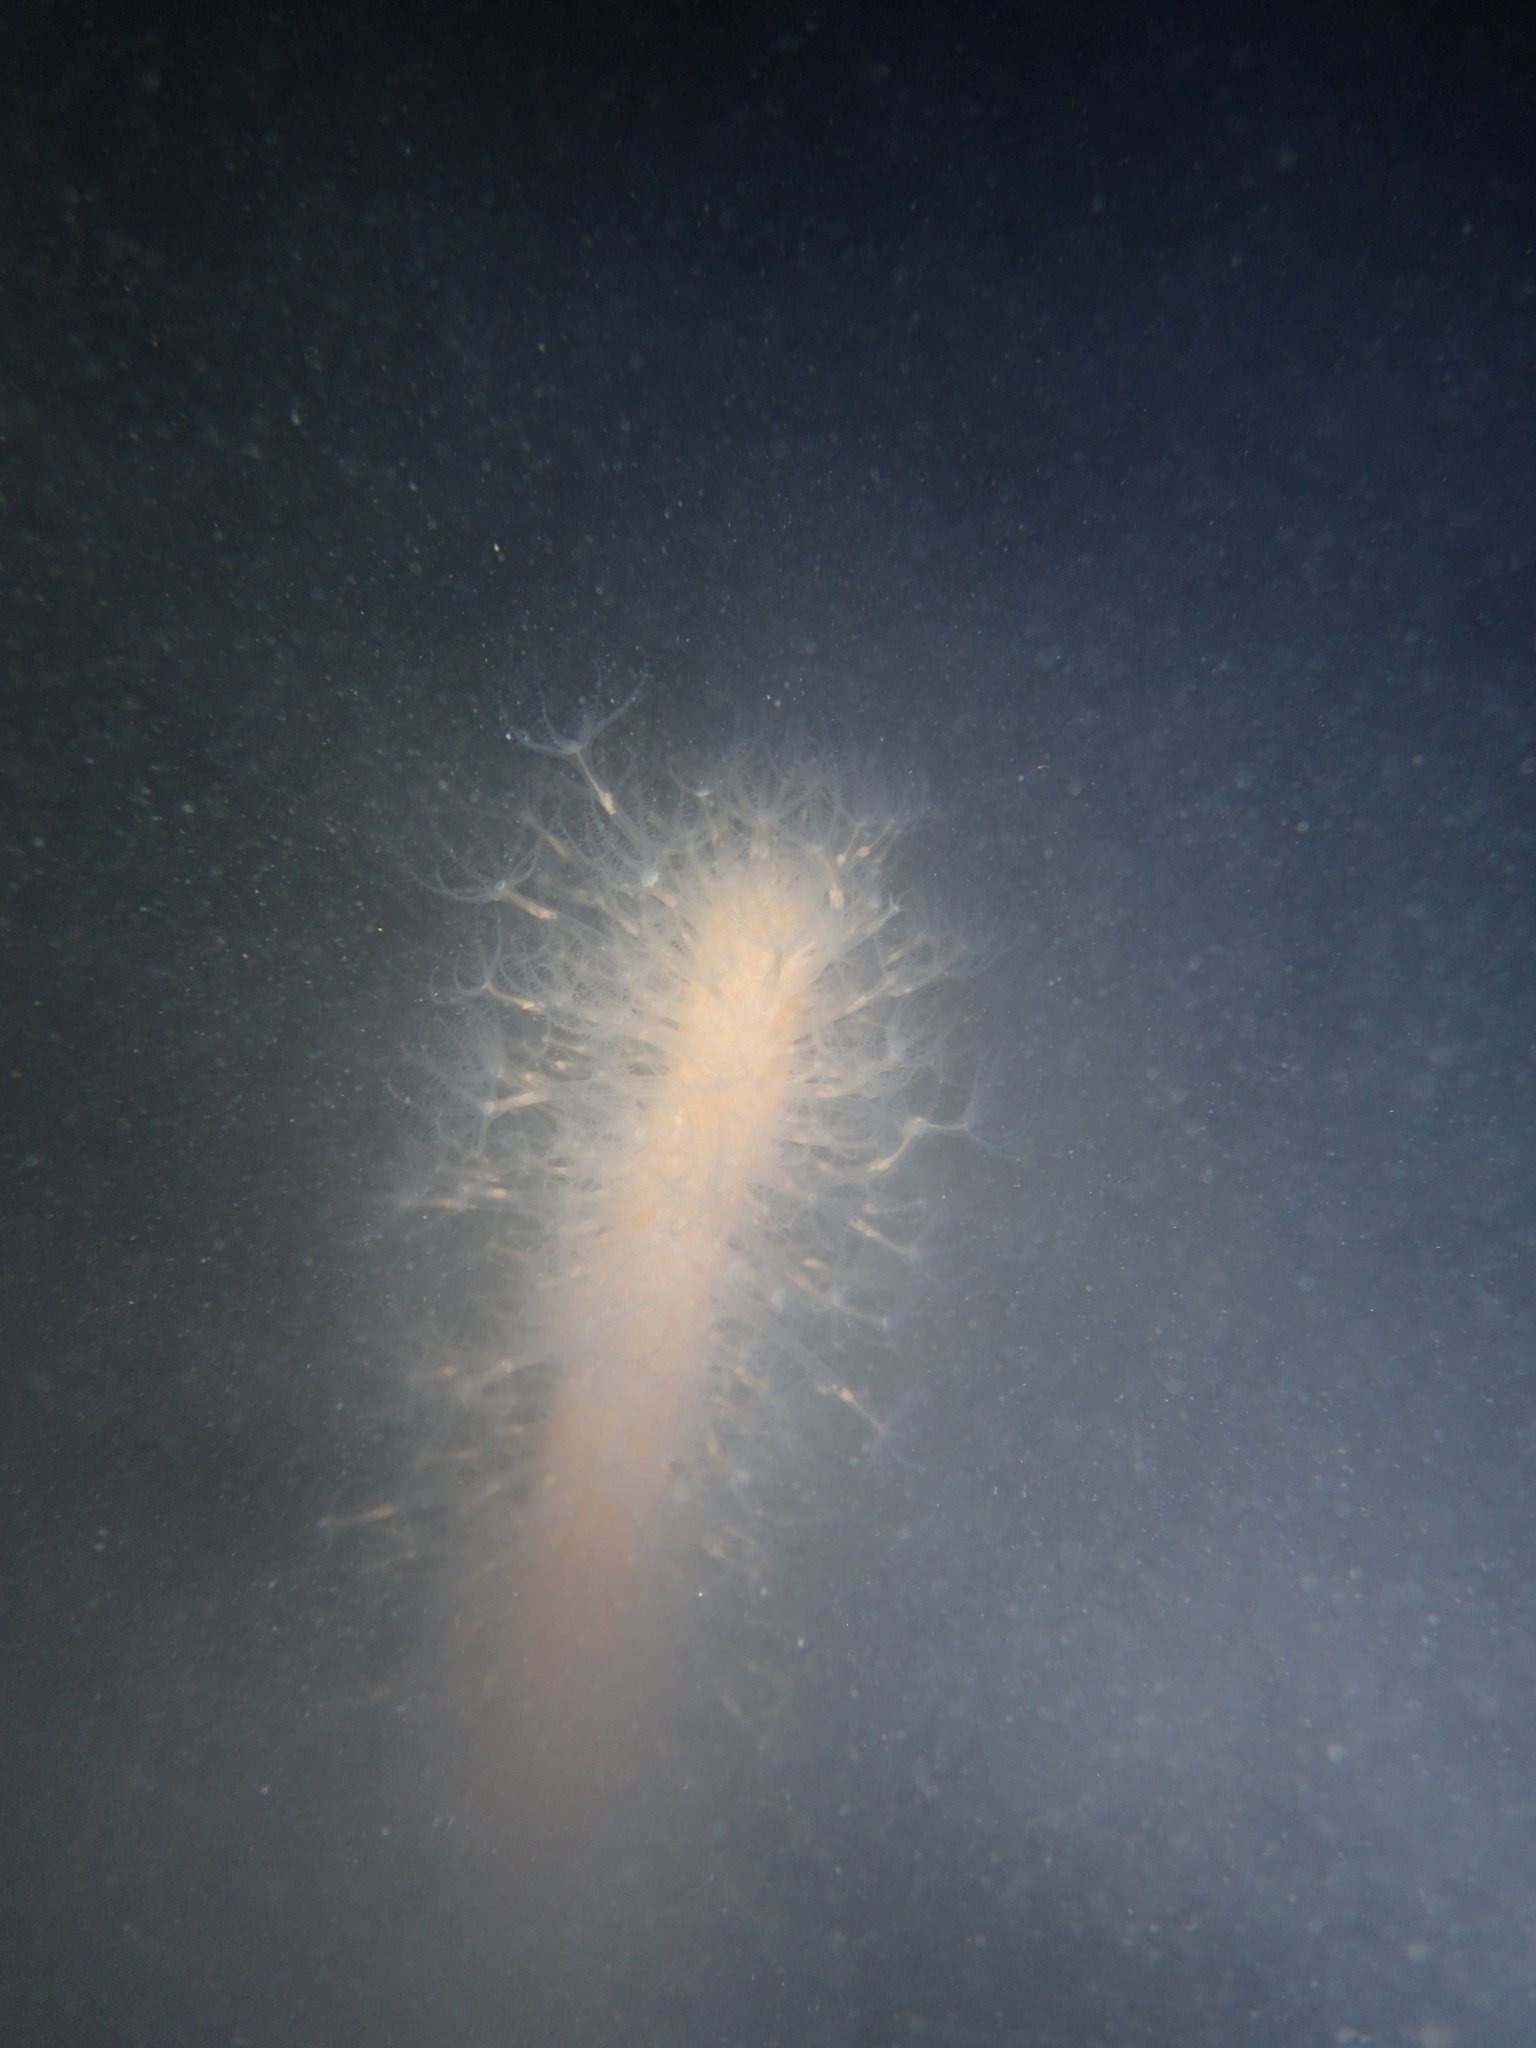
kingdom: Animalia
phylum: Cnidaria
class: Anthozoa
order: Scleralcyonacea
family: Veretillidae
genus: Veretillum
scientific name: Veretillum cynomorium
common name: Finger-shaped sea-pen
